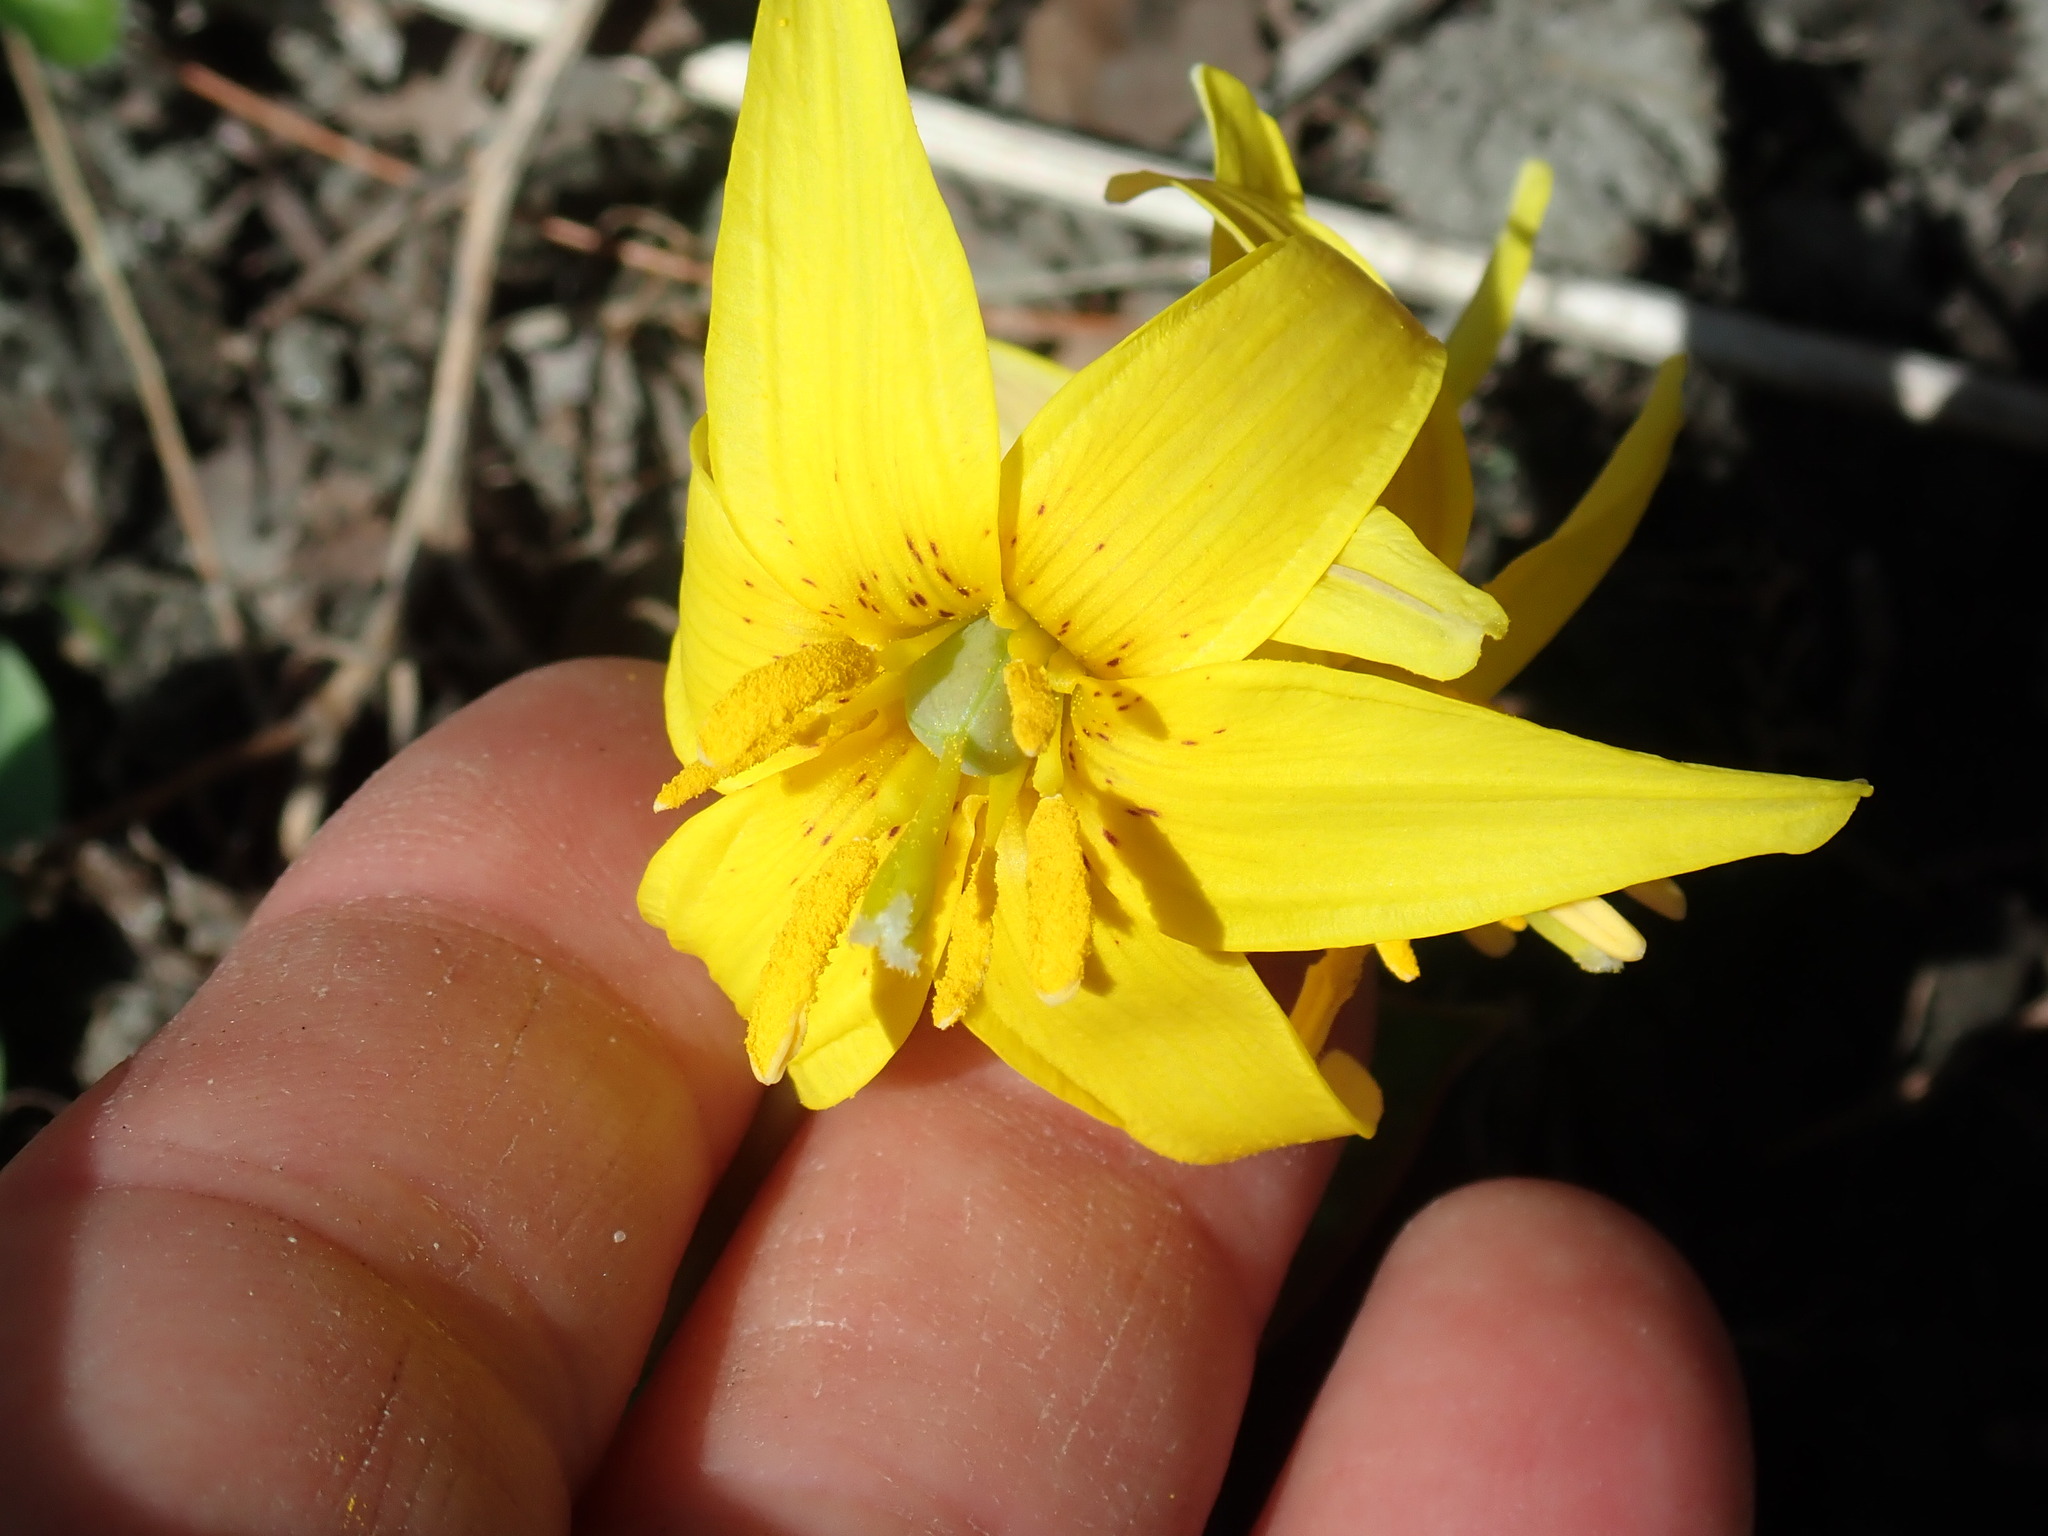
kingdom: Plantae
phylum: Tracheophyta
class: Liliopsida
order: Liliales
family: Liliaceae
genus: Erythronium
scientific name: Erythronium americanum
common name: Yellow adder's-tongue
